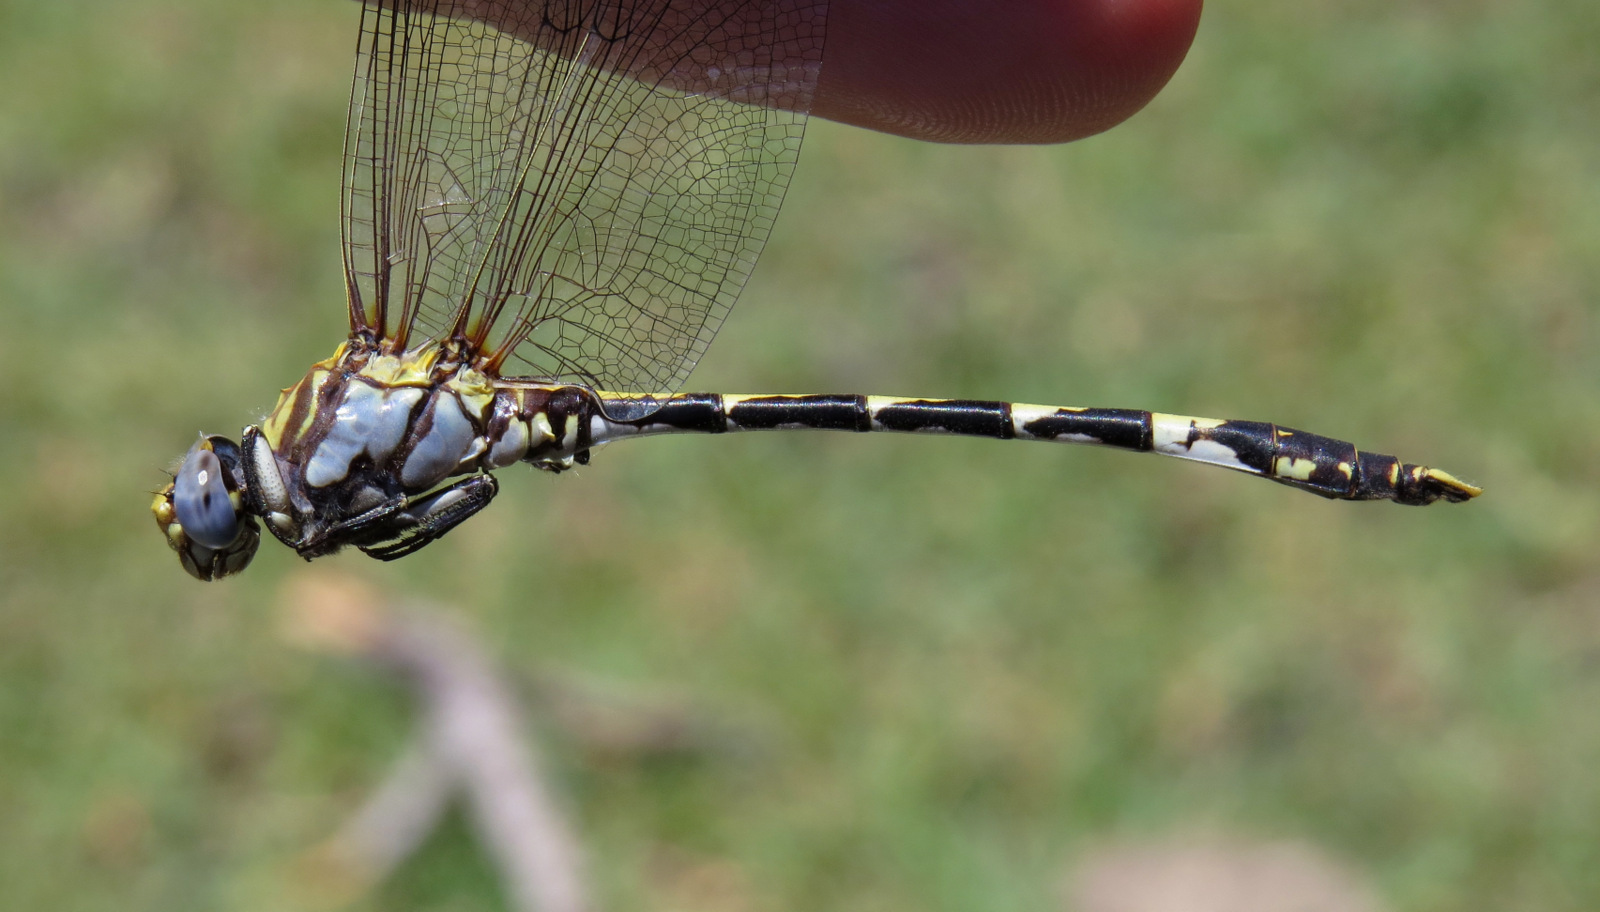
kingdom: Animalia
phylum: Arthropoda
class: Insecta
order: Odonata
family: Gomphidae
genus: Progomphus
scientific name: Progomphus borealis
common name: Gray sanddragon
